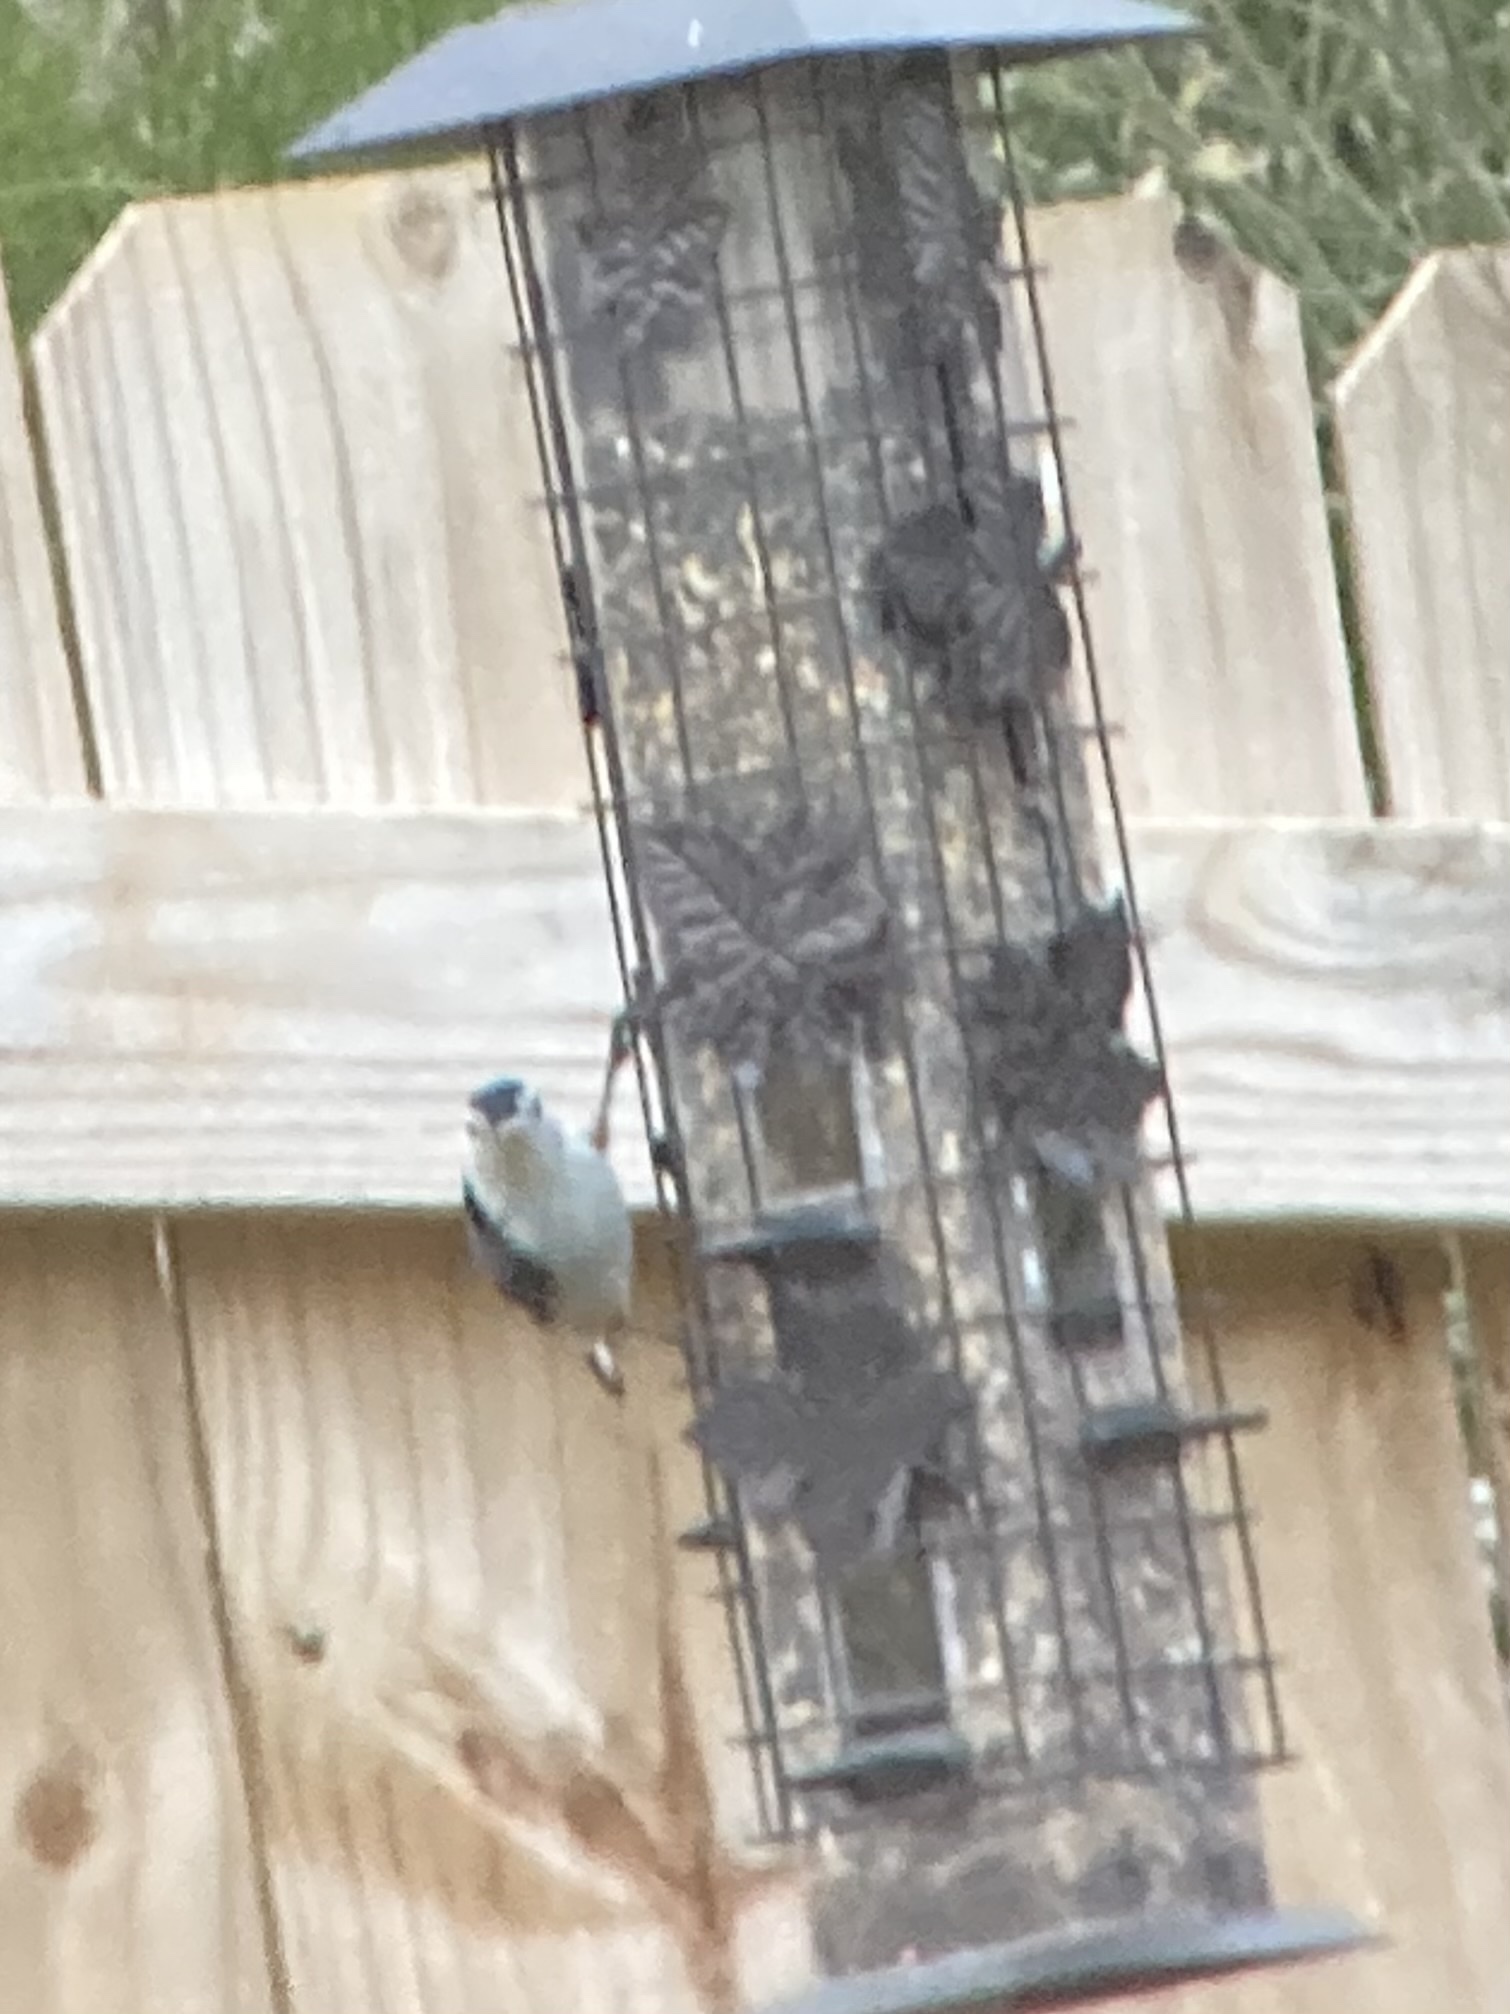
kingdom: Animalia
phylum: Chordata
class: Aves
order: Passeriformes
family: Sittidae
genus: Sitta
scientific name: Sitta carolinensis
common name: White-breasted nuthatch
